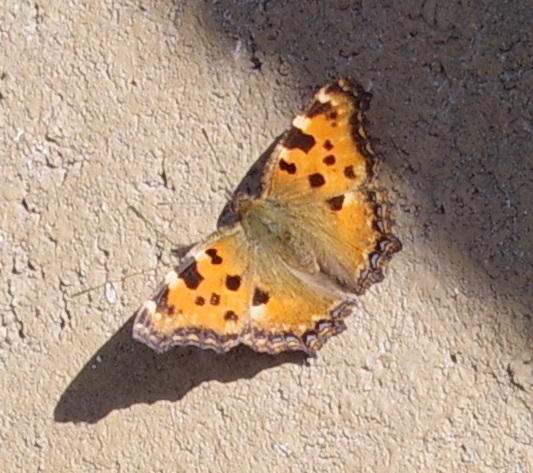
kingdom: Animalia
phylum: Arthropoda
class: Insecta
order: Lepidoptera
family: Nymphalidae
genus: Nymphalis
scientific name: Nymphalis polychloros
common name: Large tortoiseshell
